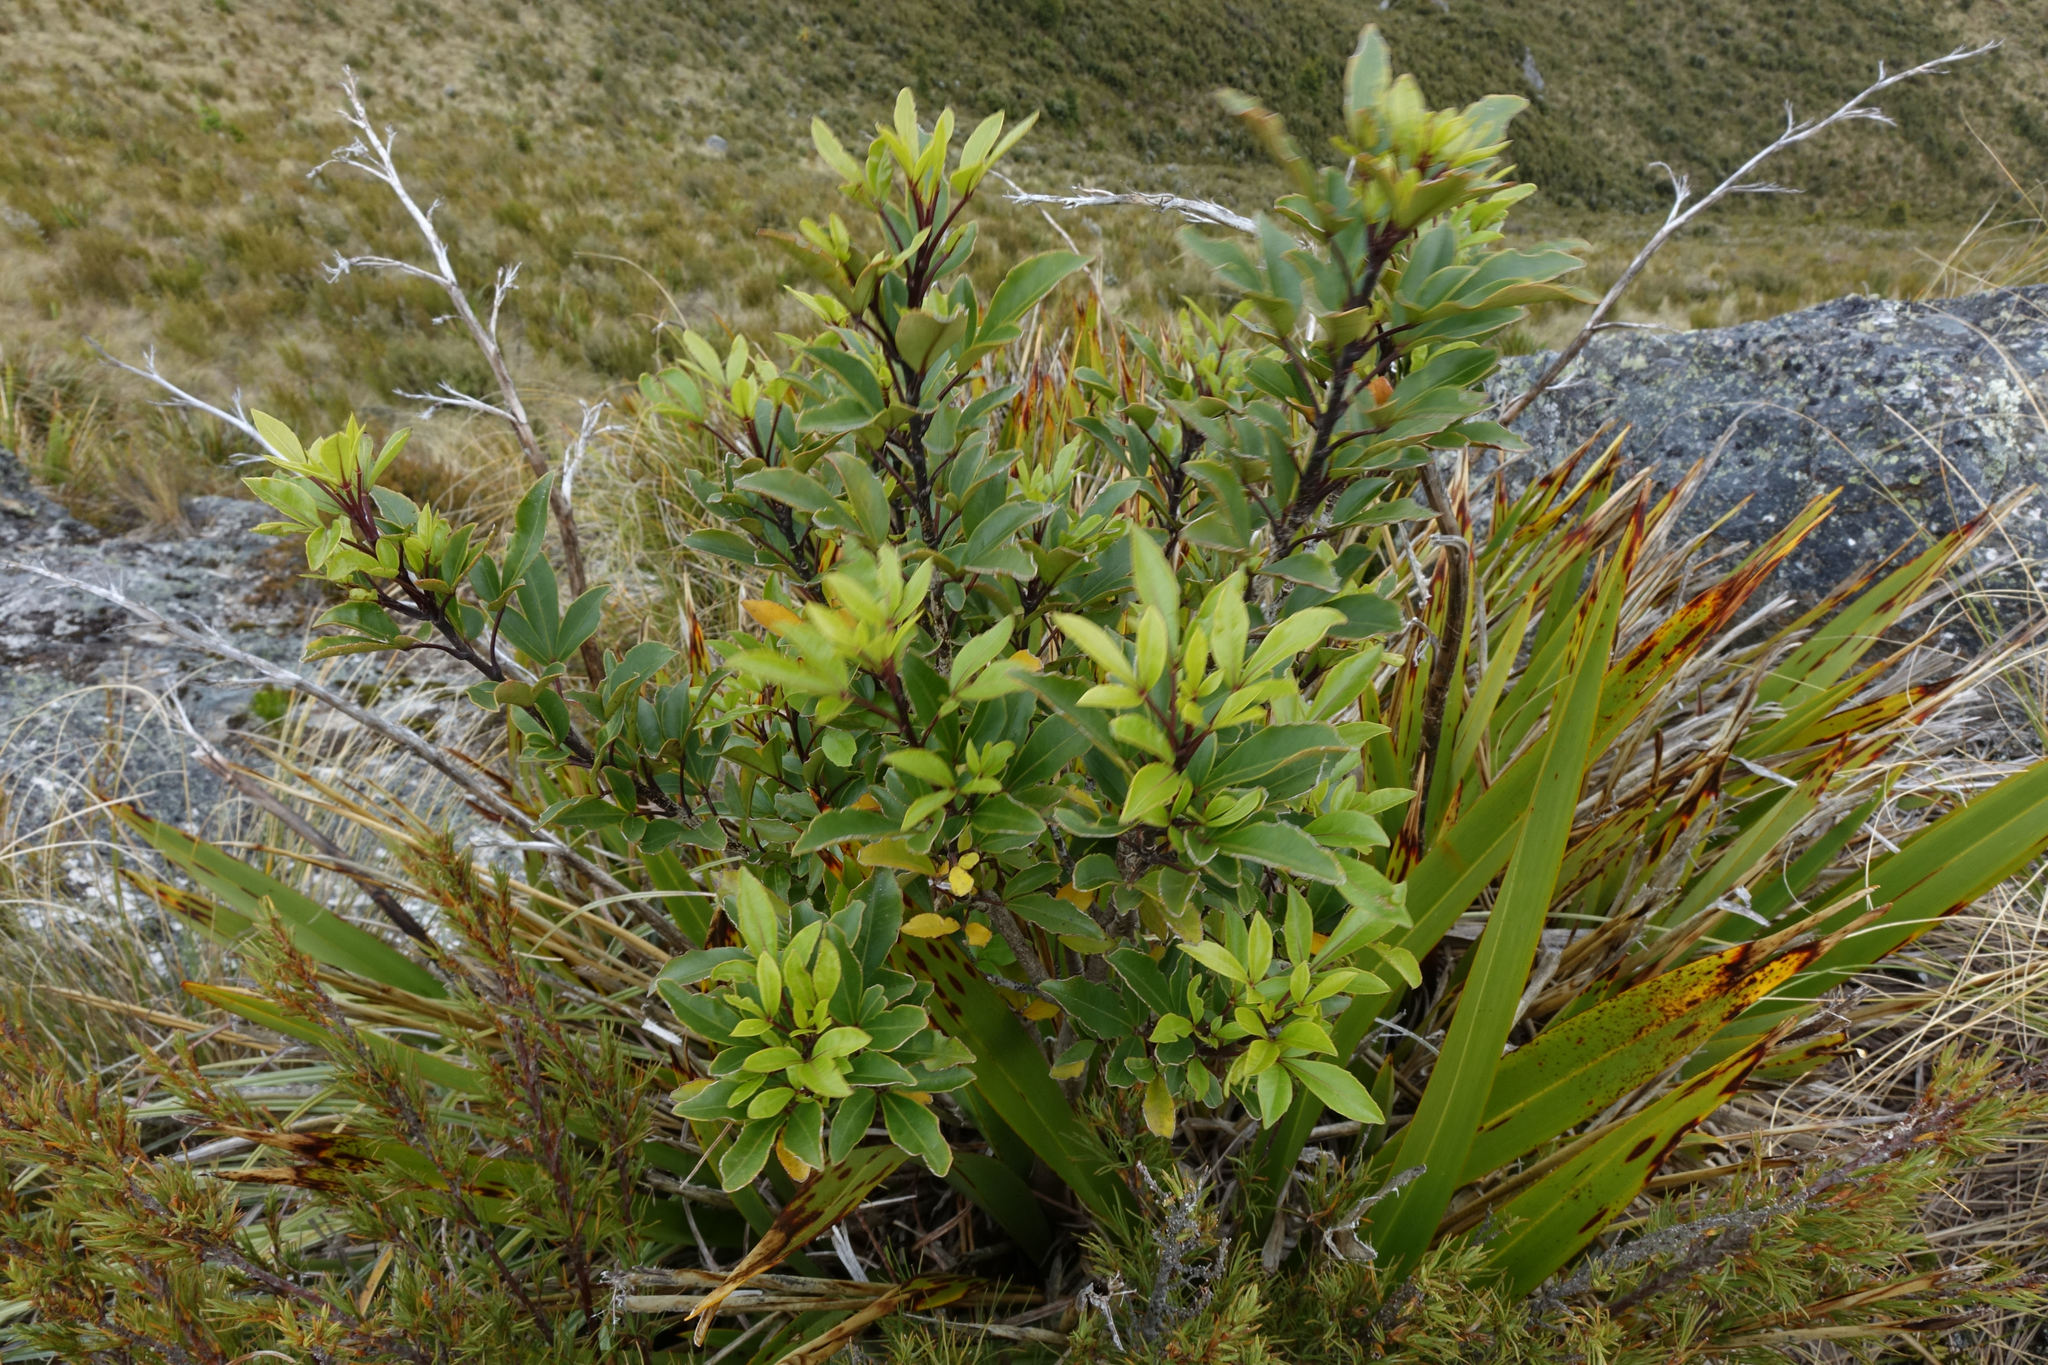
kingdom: Plantae
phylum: Tracheophyta
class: Magnoliopsida
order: Apiales
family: Araliaceae
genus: Raukaua
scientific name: Raukaua simplex
